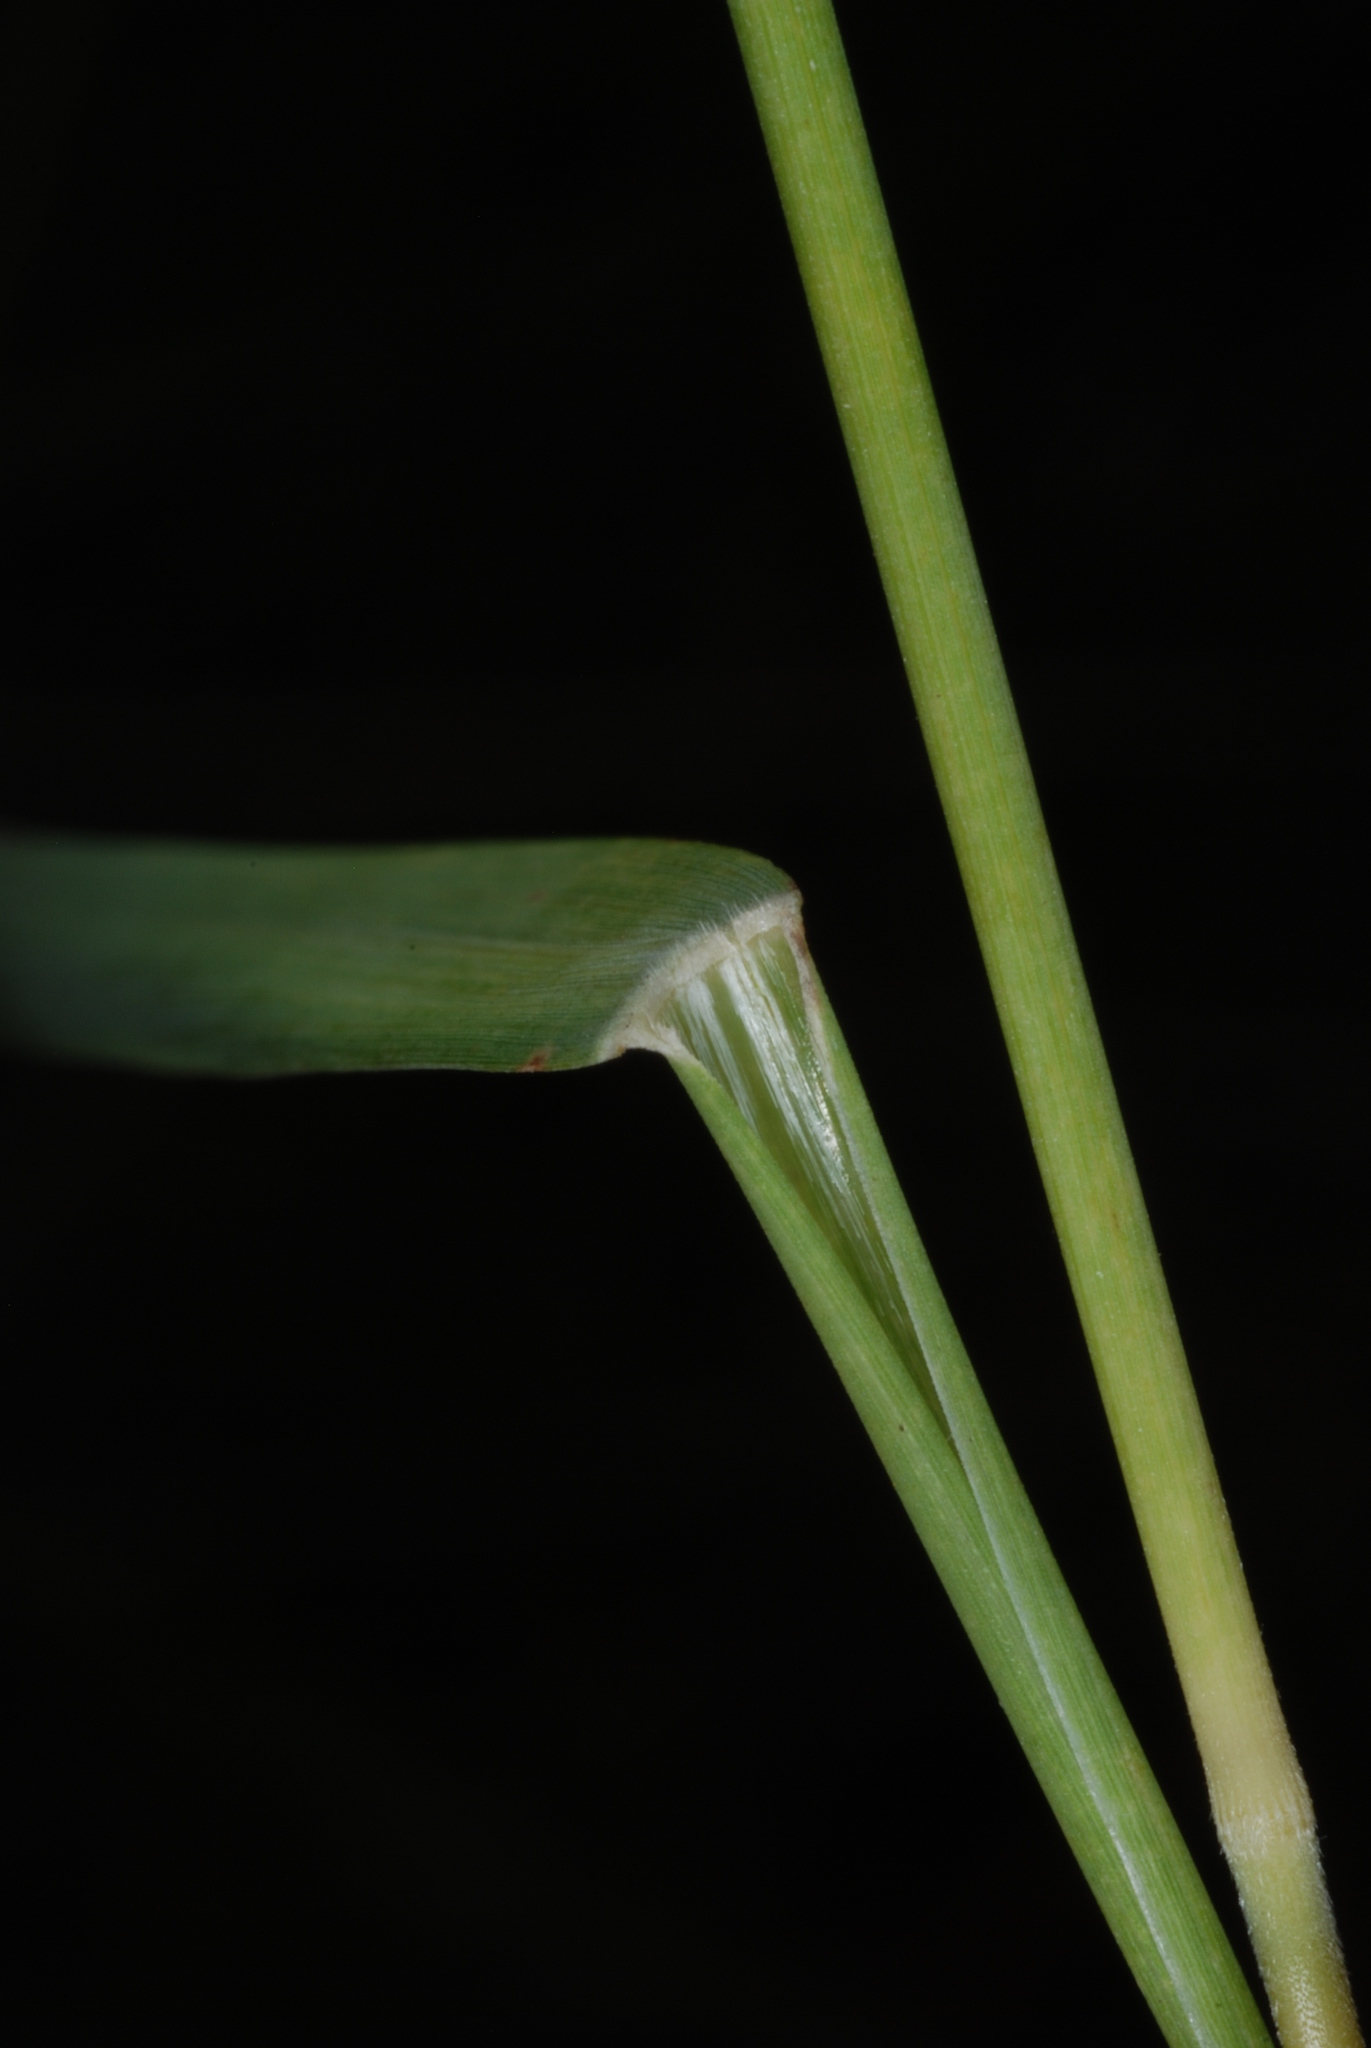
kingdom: Plantae
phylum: Tracheophyta
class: Liliopsida
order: Poales
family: Poaceae
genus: Muhlenbergia
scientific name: Muhlenbergia glomerata
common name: Bog muhly
